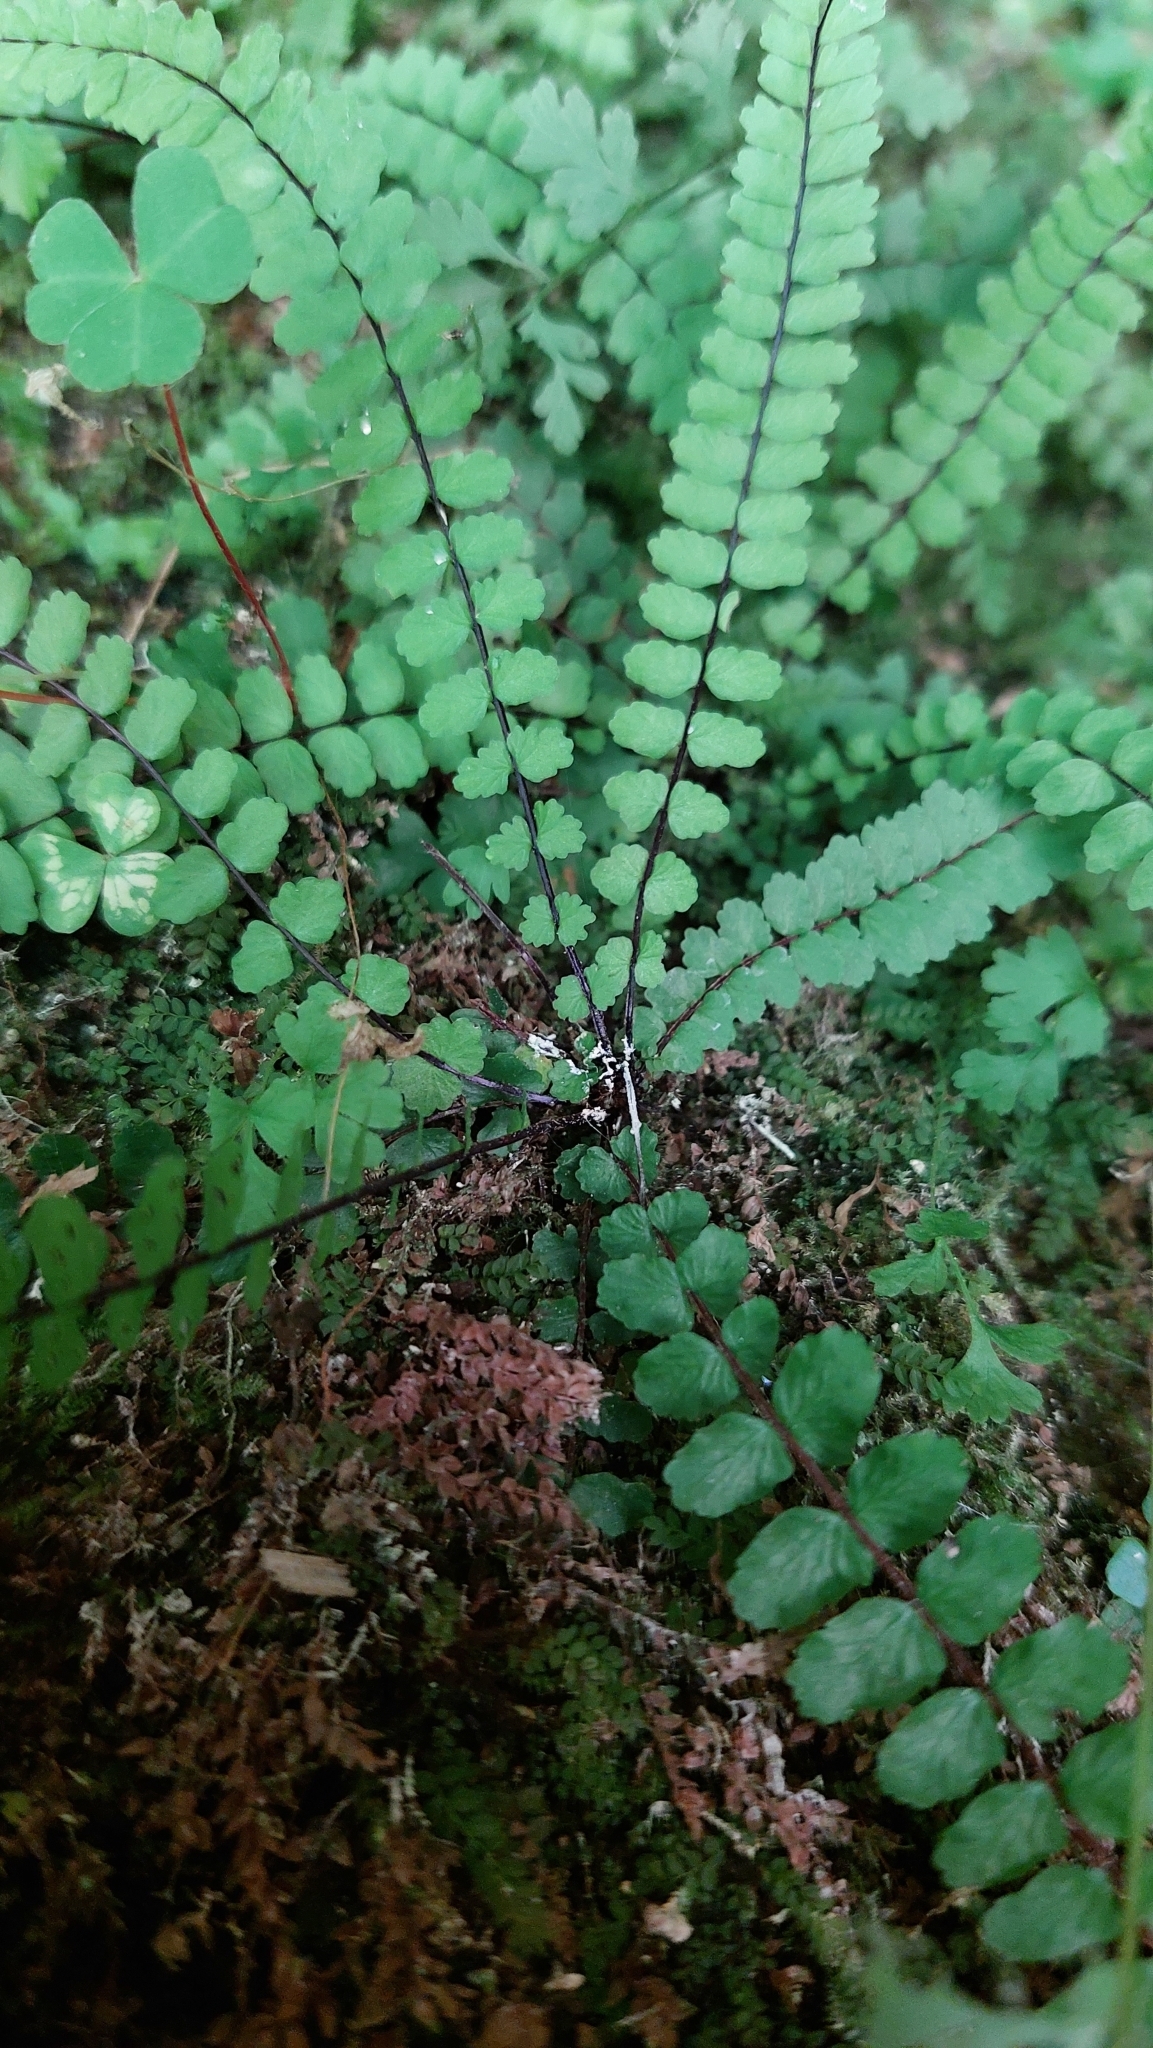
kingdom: Plantae
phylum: Tracheophyta
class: Polypodiopsida
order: Polypodiales
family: Aspleniaceae
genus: Asplenium
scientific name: Asplenium trichomanes
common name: Maidenhair spleenwort
